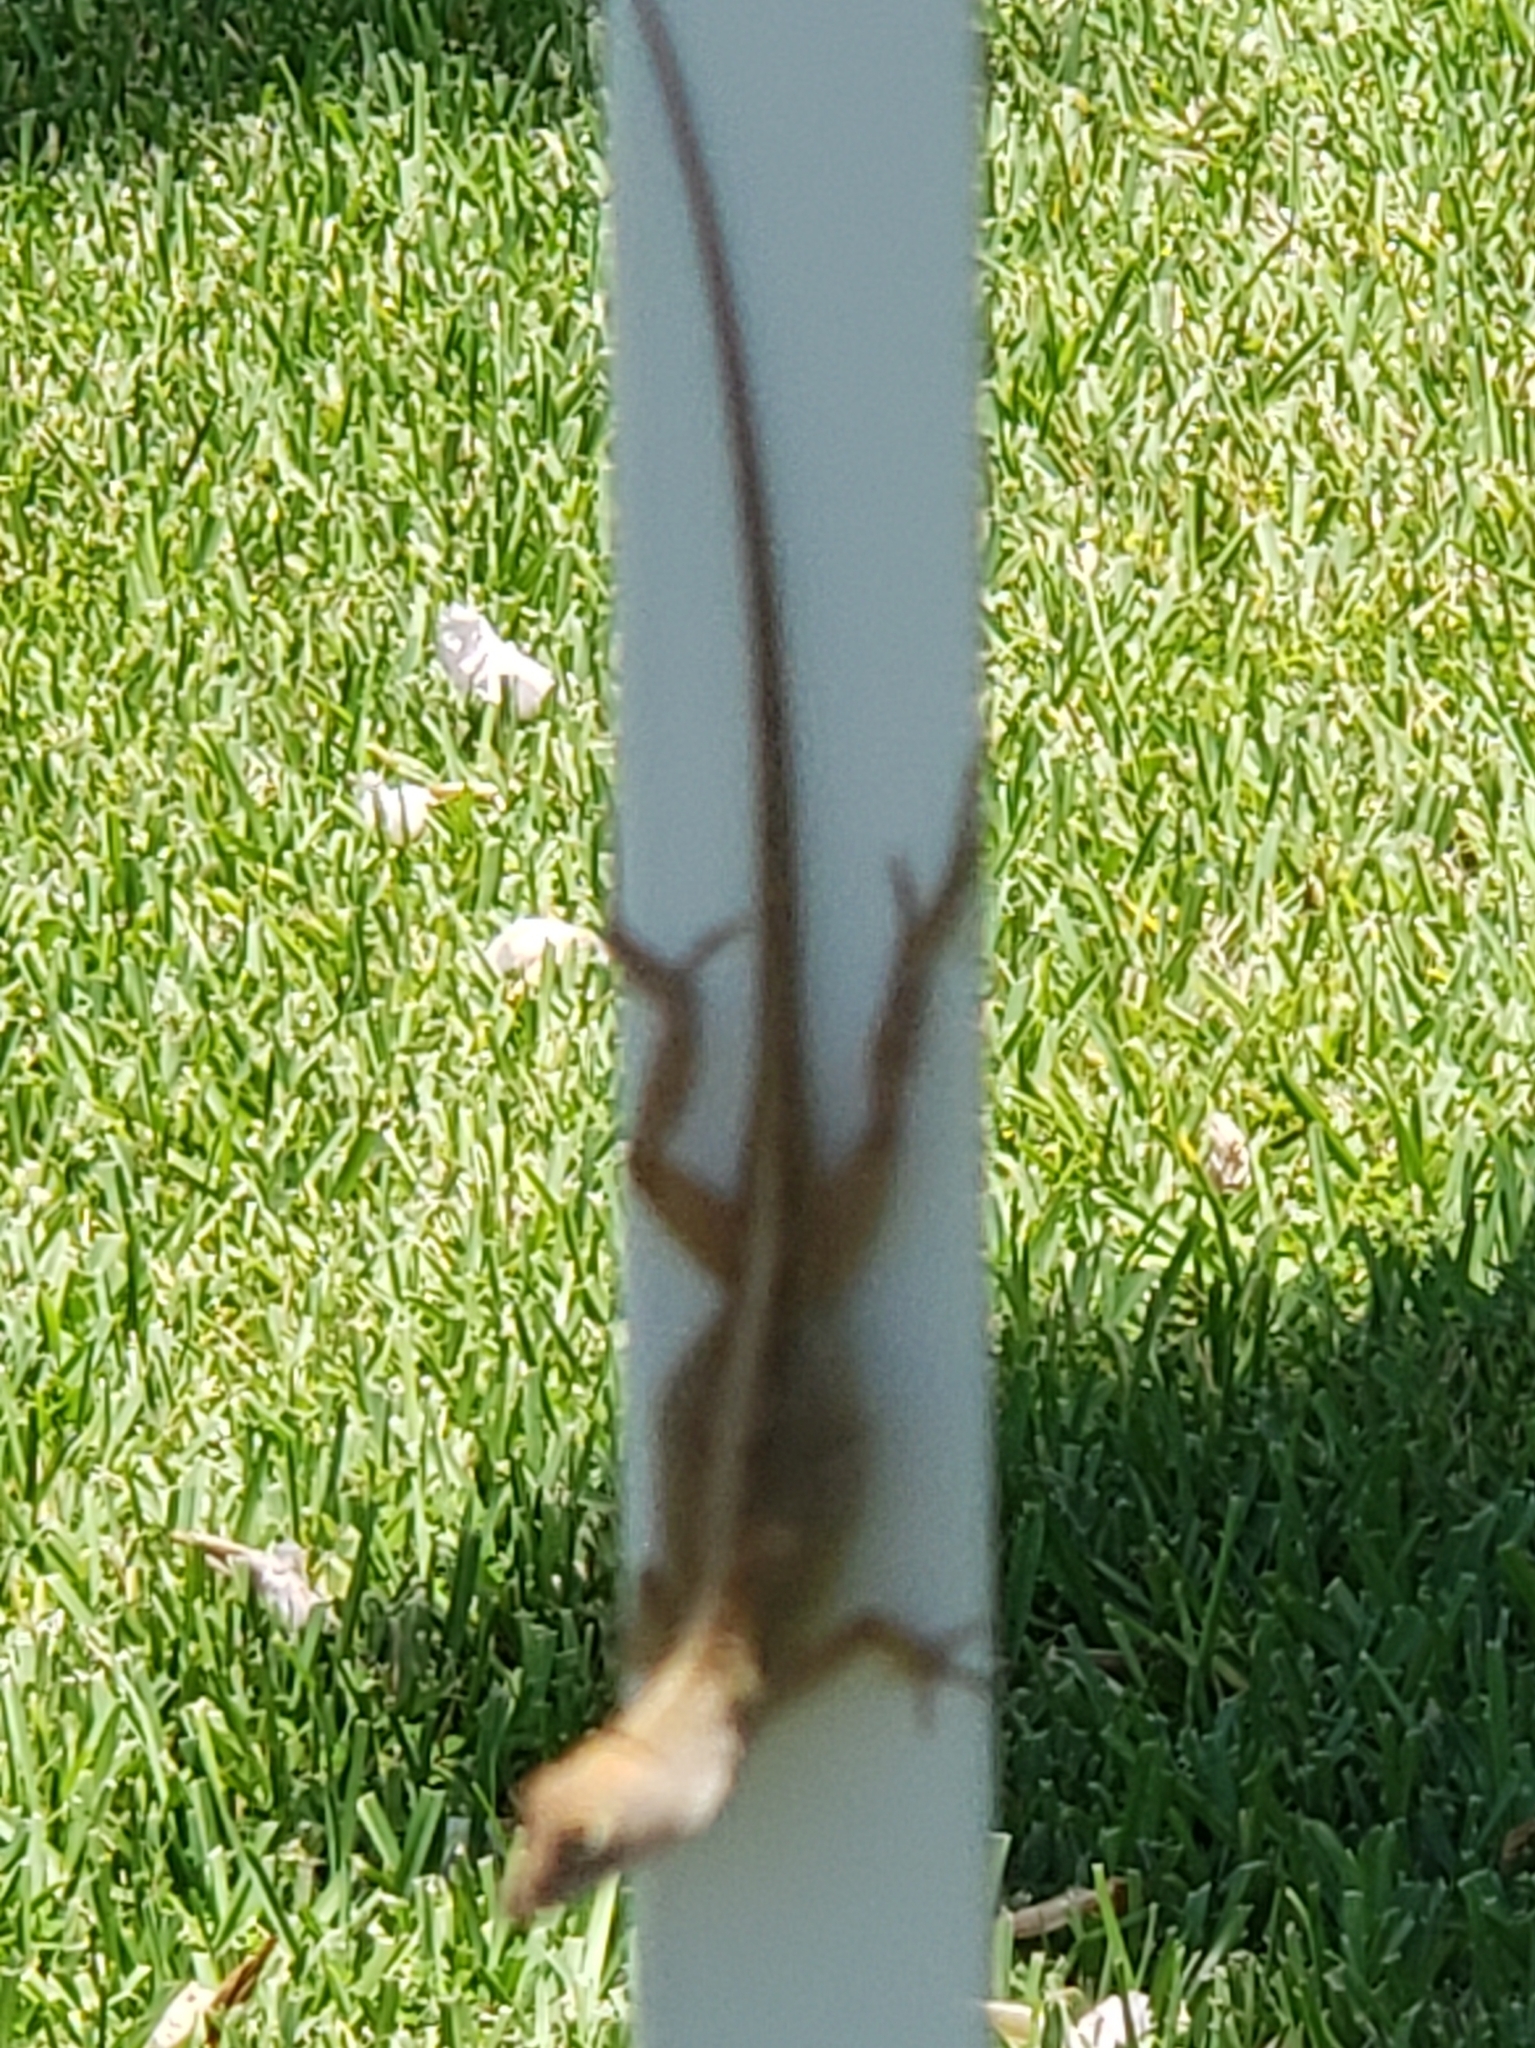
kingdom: Animalia
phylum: Chordata
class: Squamata
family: Dactyloidae
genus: Anolis
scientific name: Anolis sagrei
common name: Brown anole
